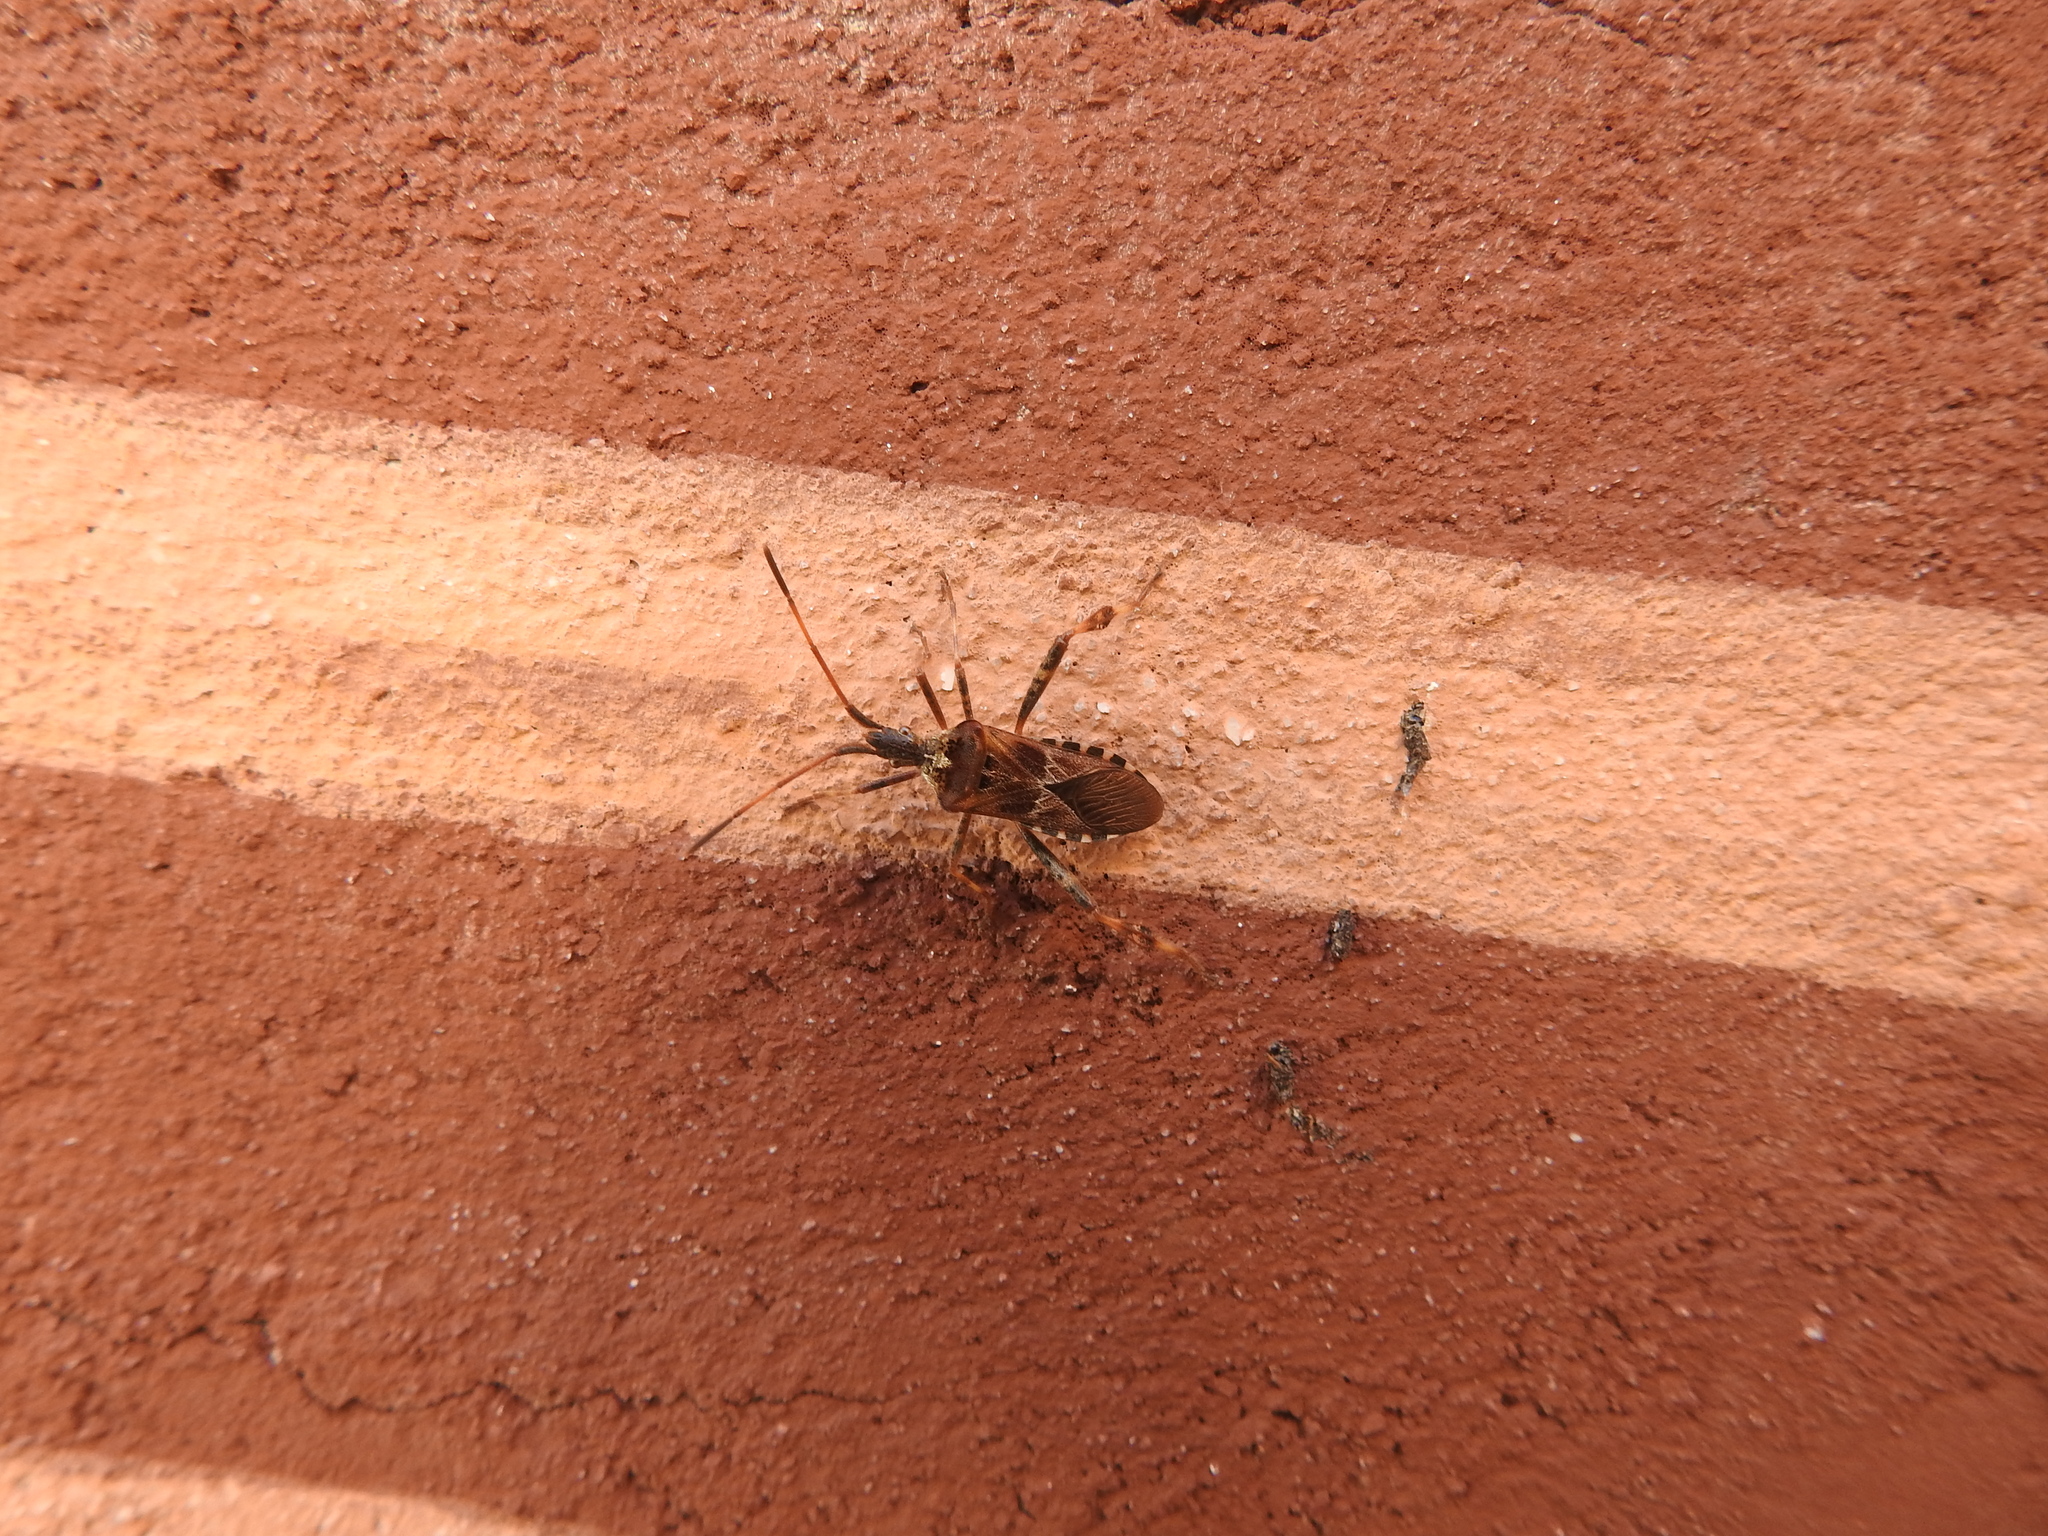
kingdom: Animalia
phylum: Arthropoda
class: Insecta
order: Hemiptera
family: Coreidae
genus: Leptoglossus
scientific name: Leptoglossus occidentalis
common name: Western conifer-seed bug
